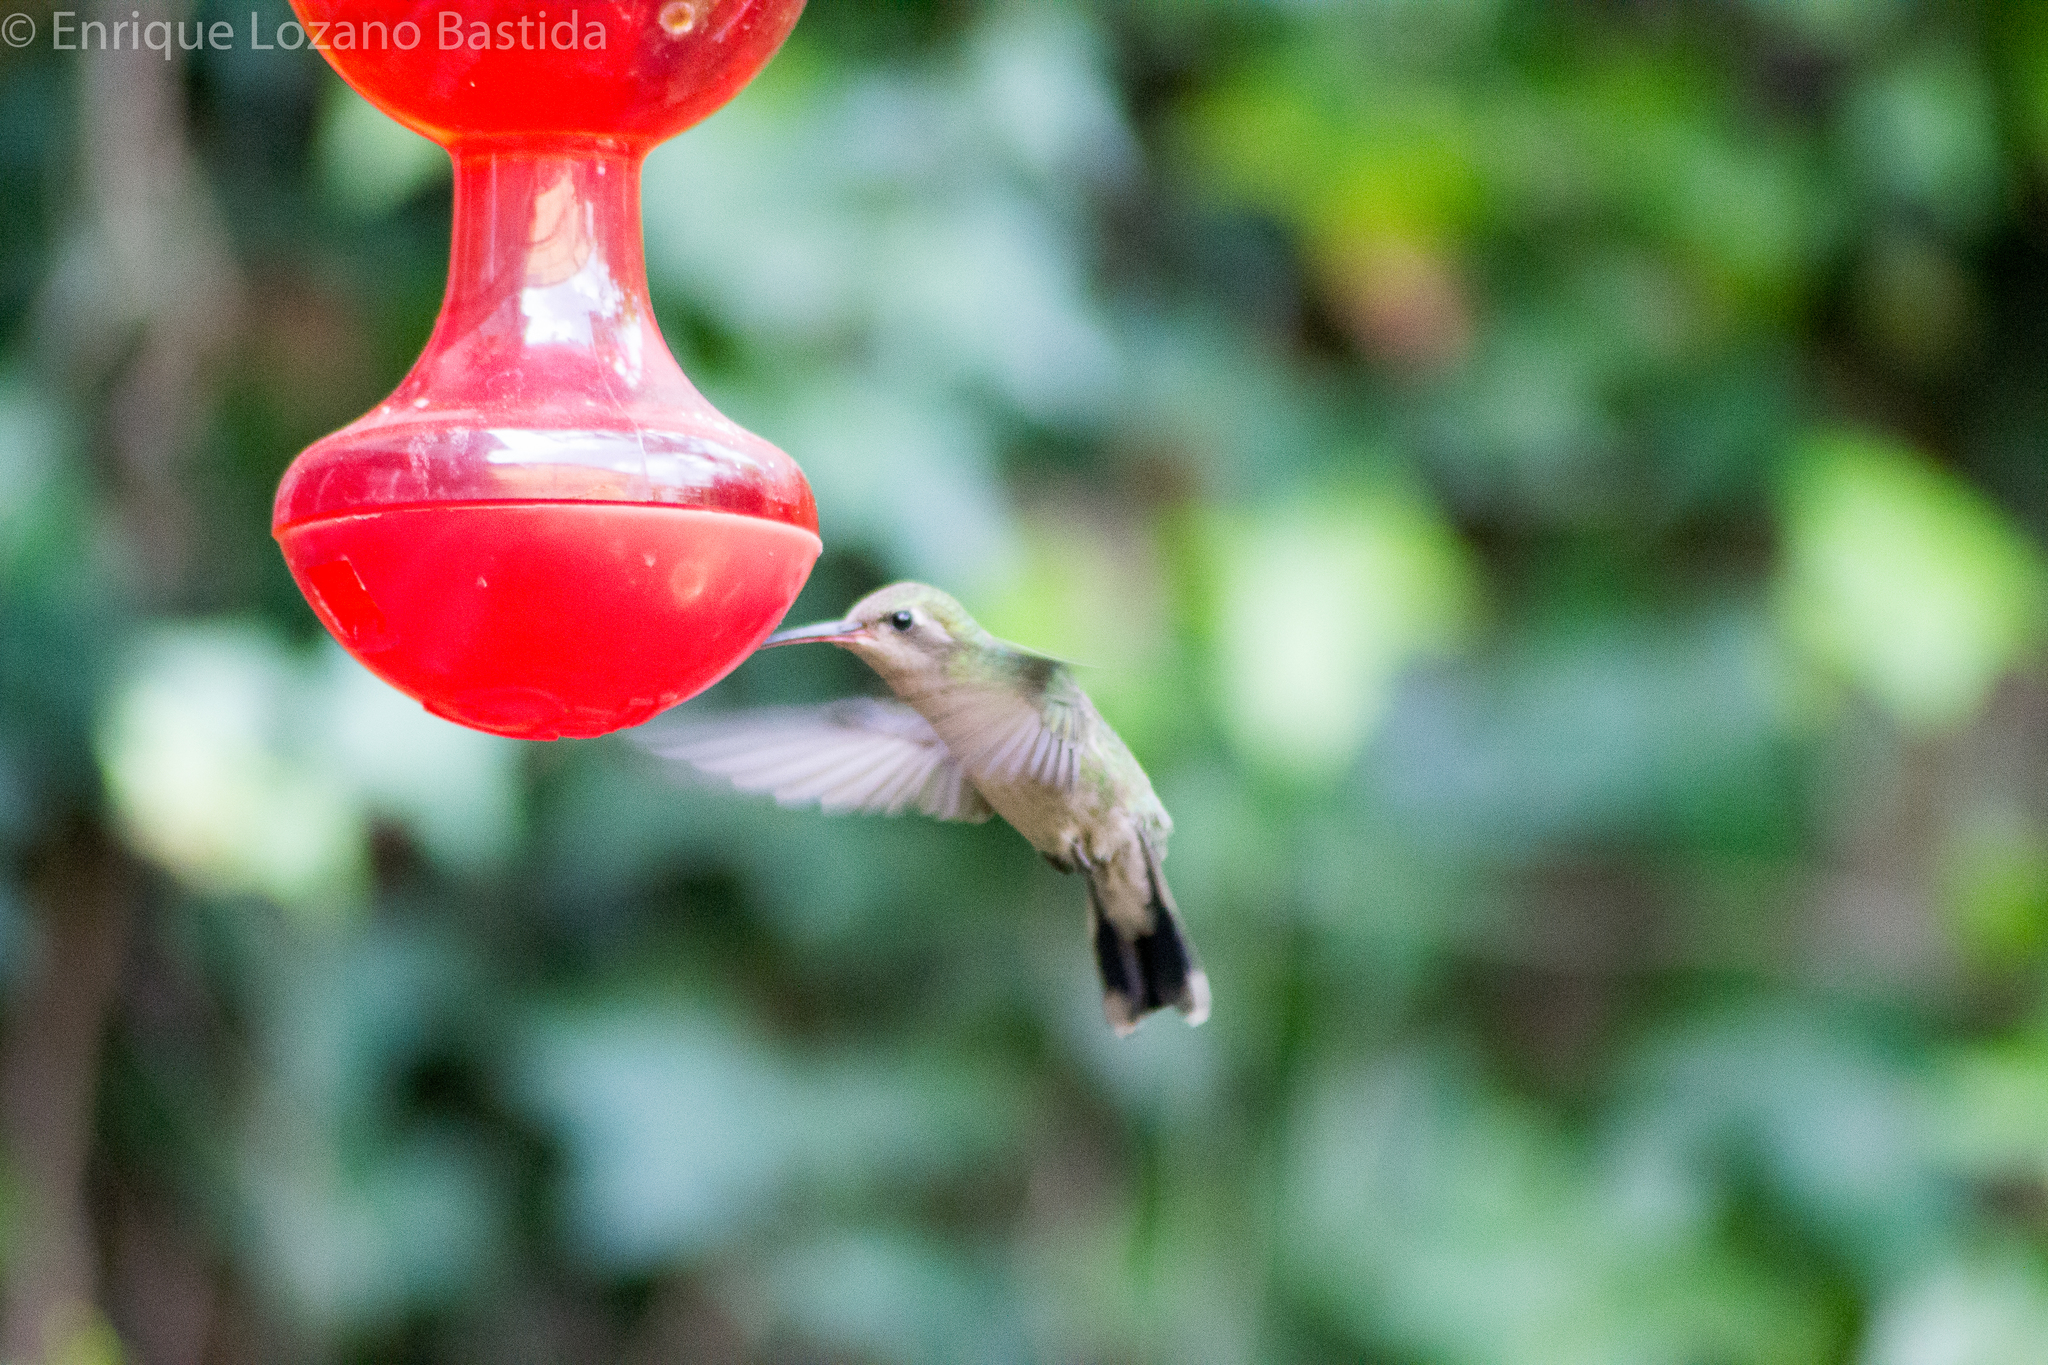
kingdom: Animalia
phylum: Chordata
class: Aves
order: Apodiformes
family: Trochilidae
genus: Cynanthus
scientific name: Cynanthus latirostris
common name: Broad-billed hummingbird
